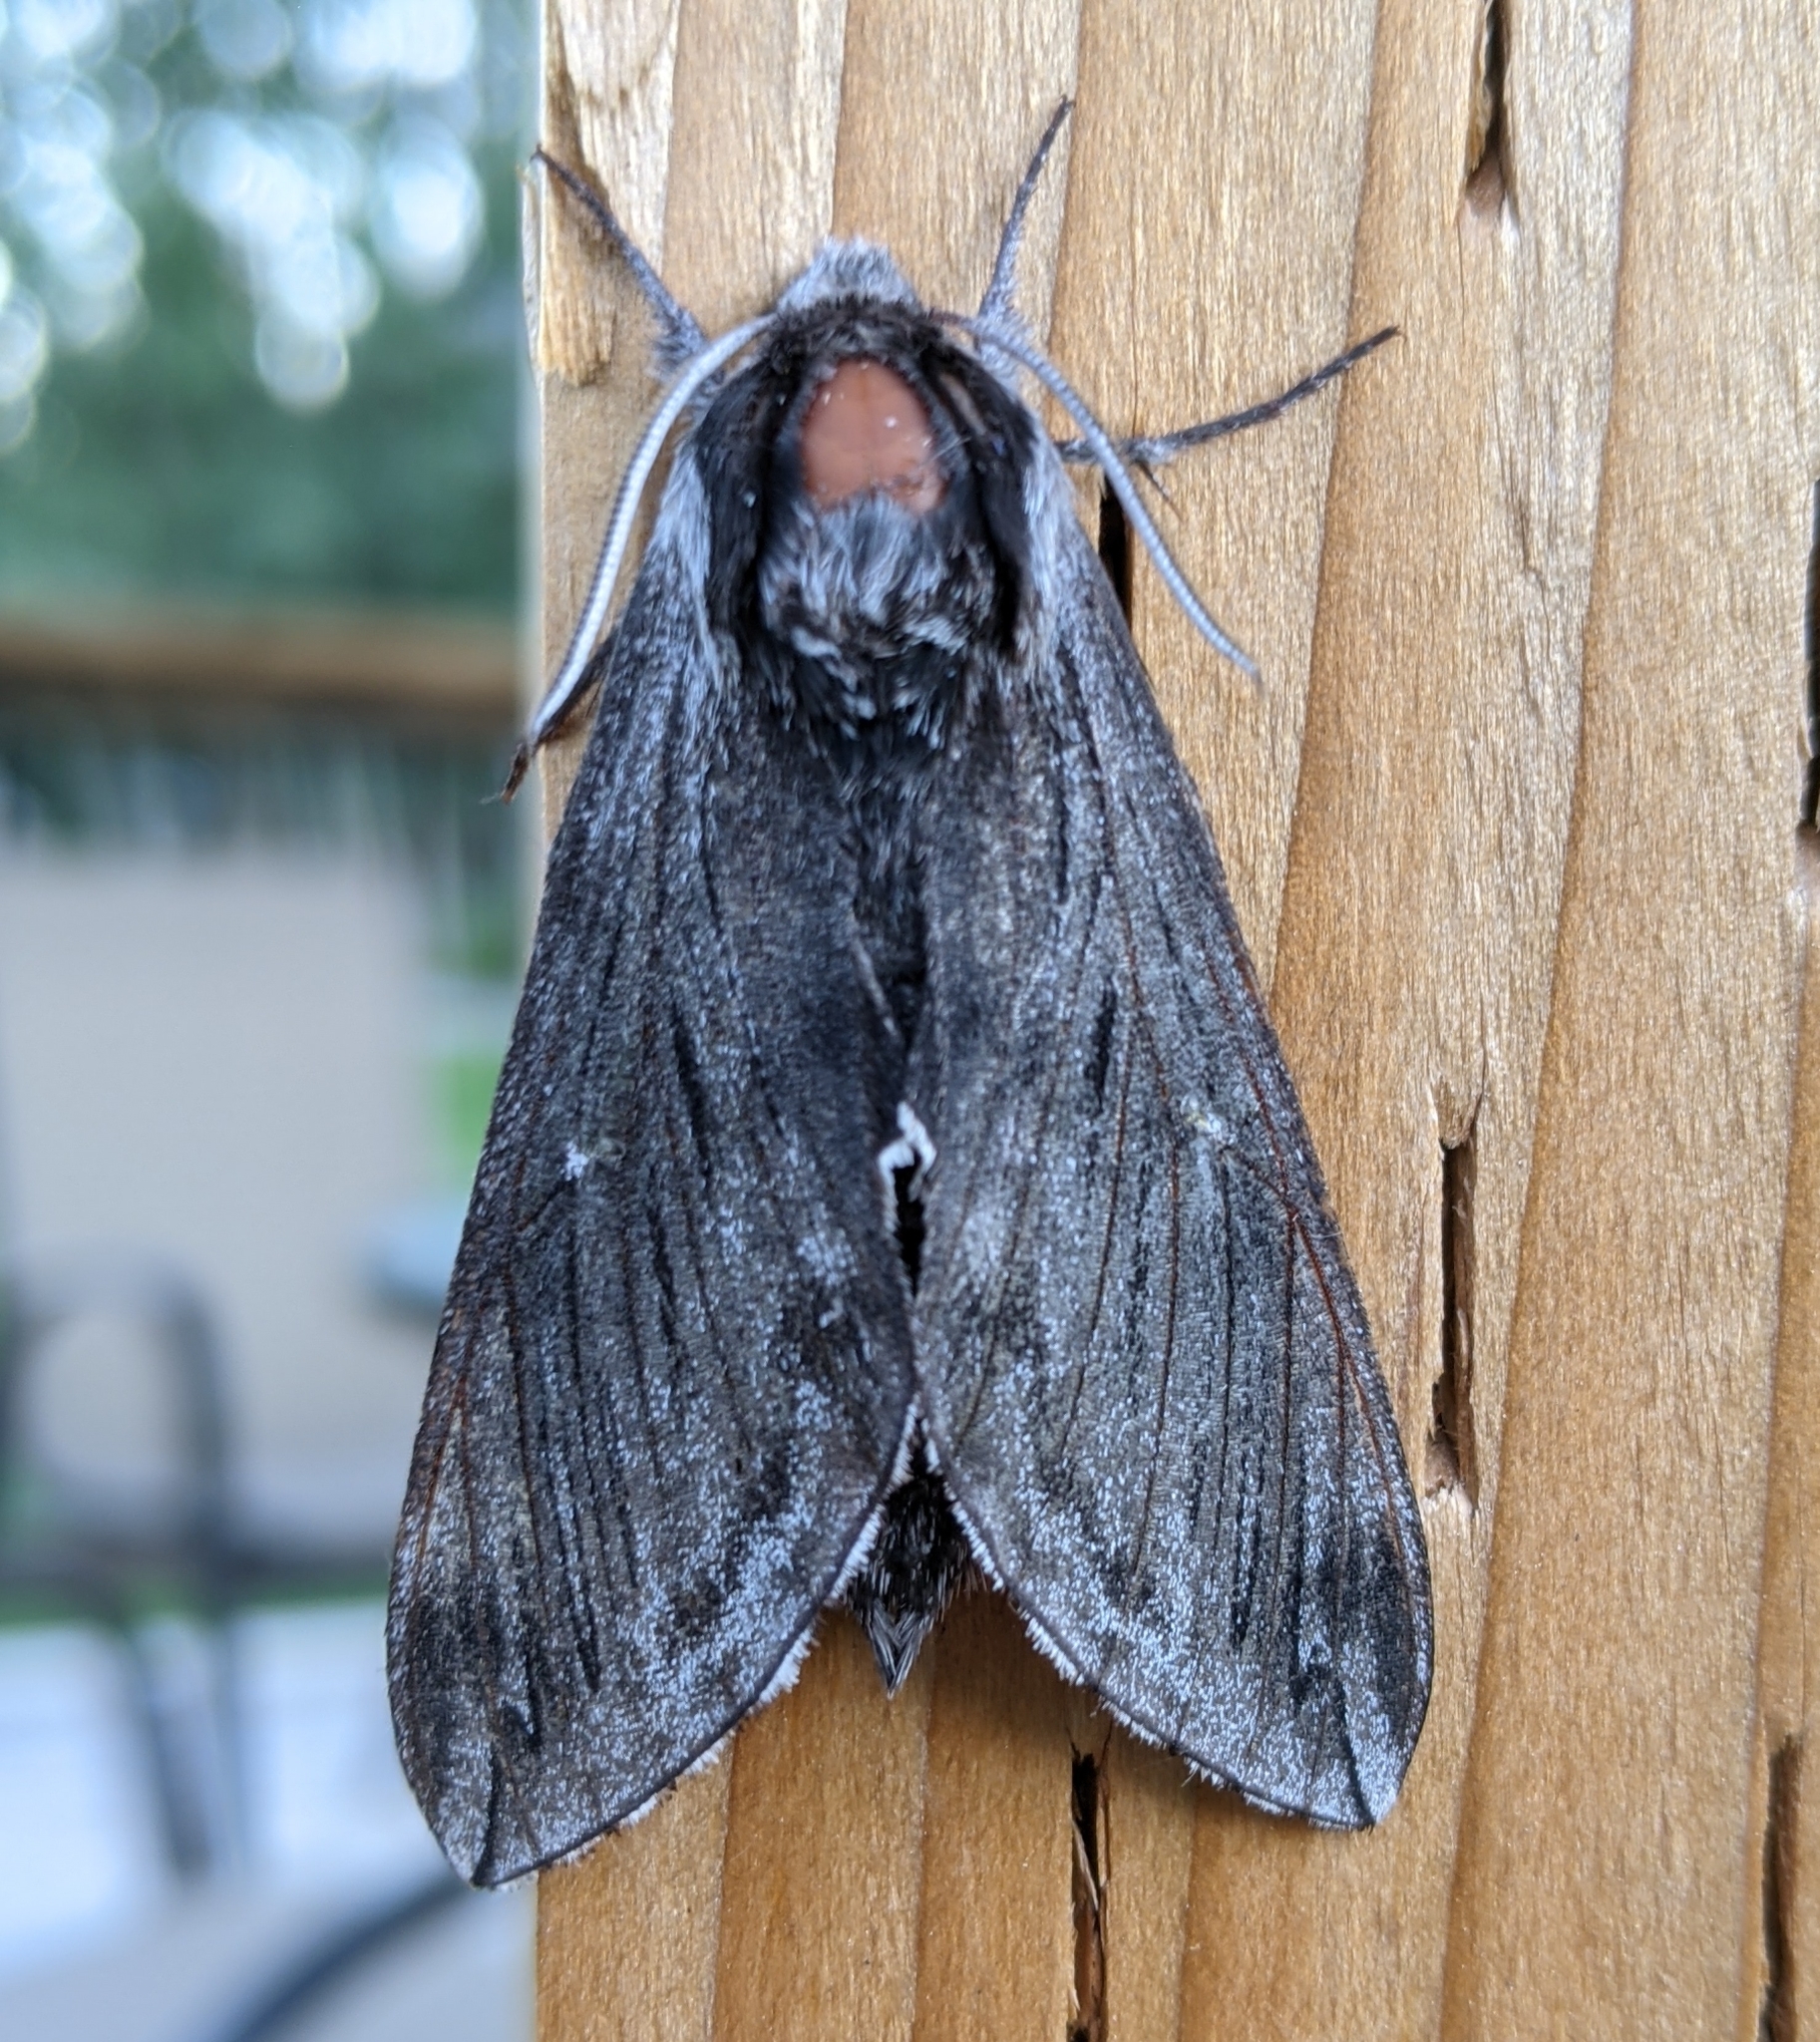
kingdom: Animalia
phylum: Arthropoda
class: Insecta
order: Lepidoptera
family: Sphingidae
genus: Sphinx
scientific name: Sphinx poecila
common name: Northern apple sphinx
